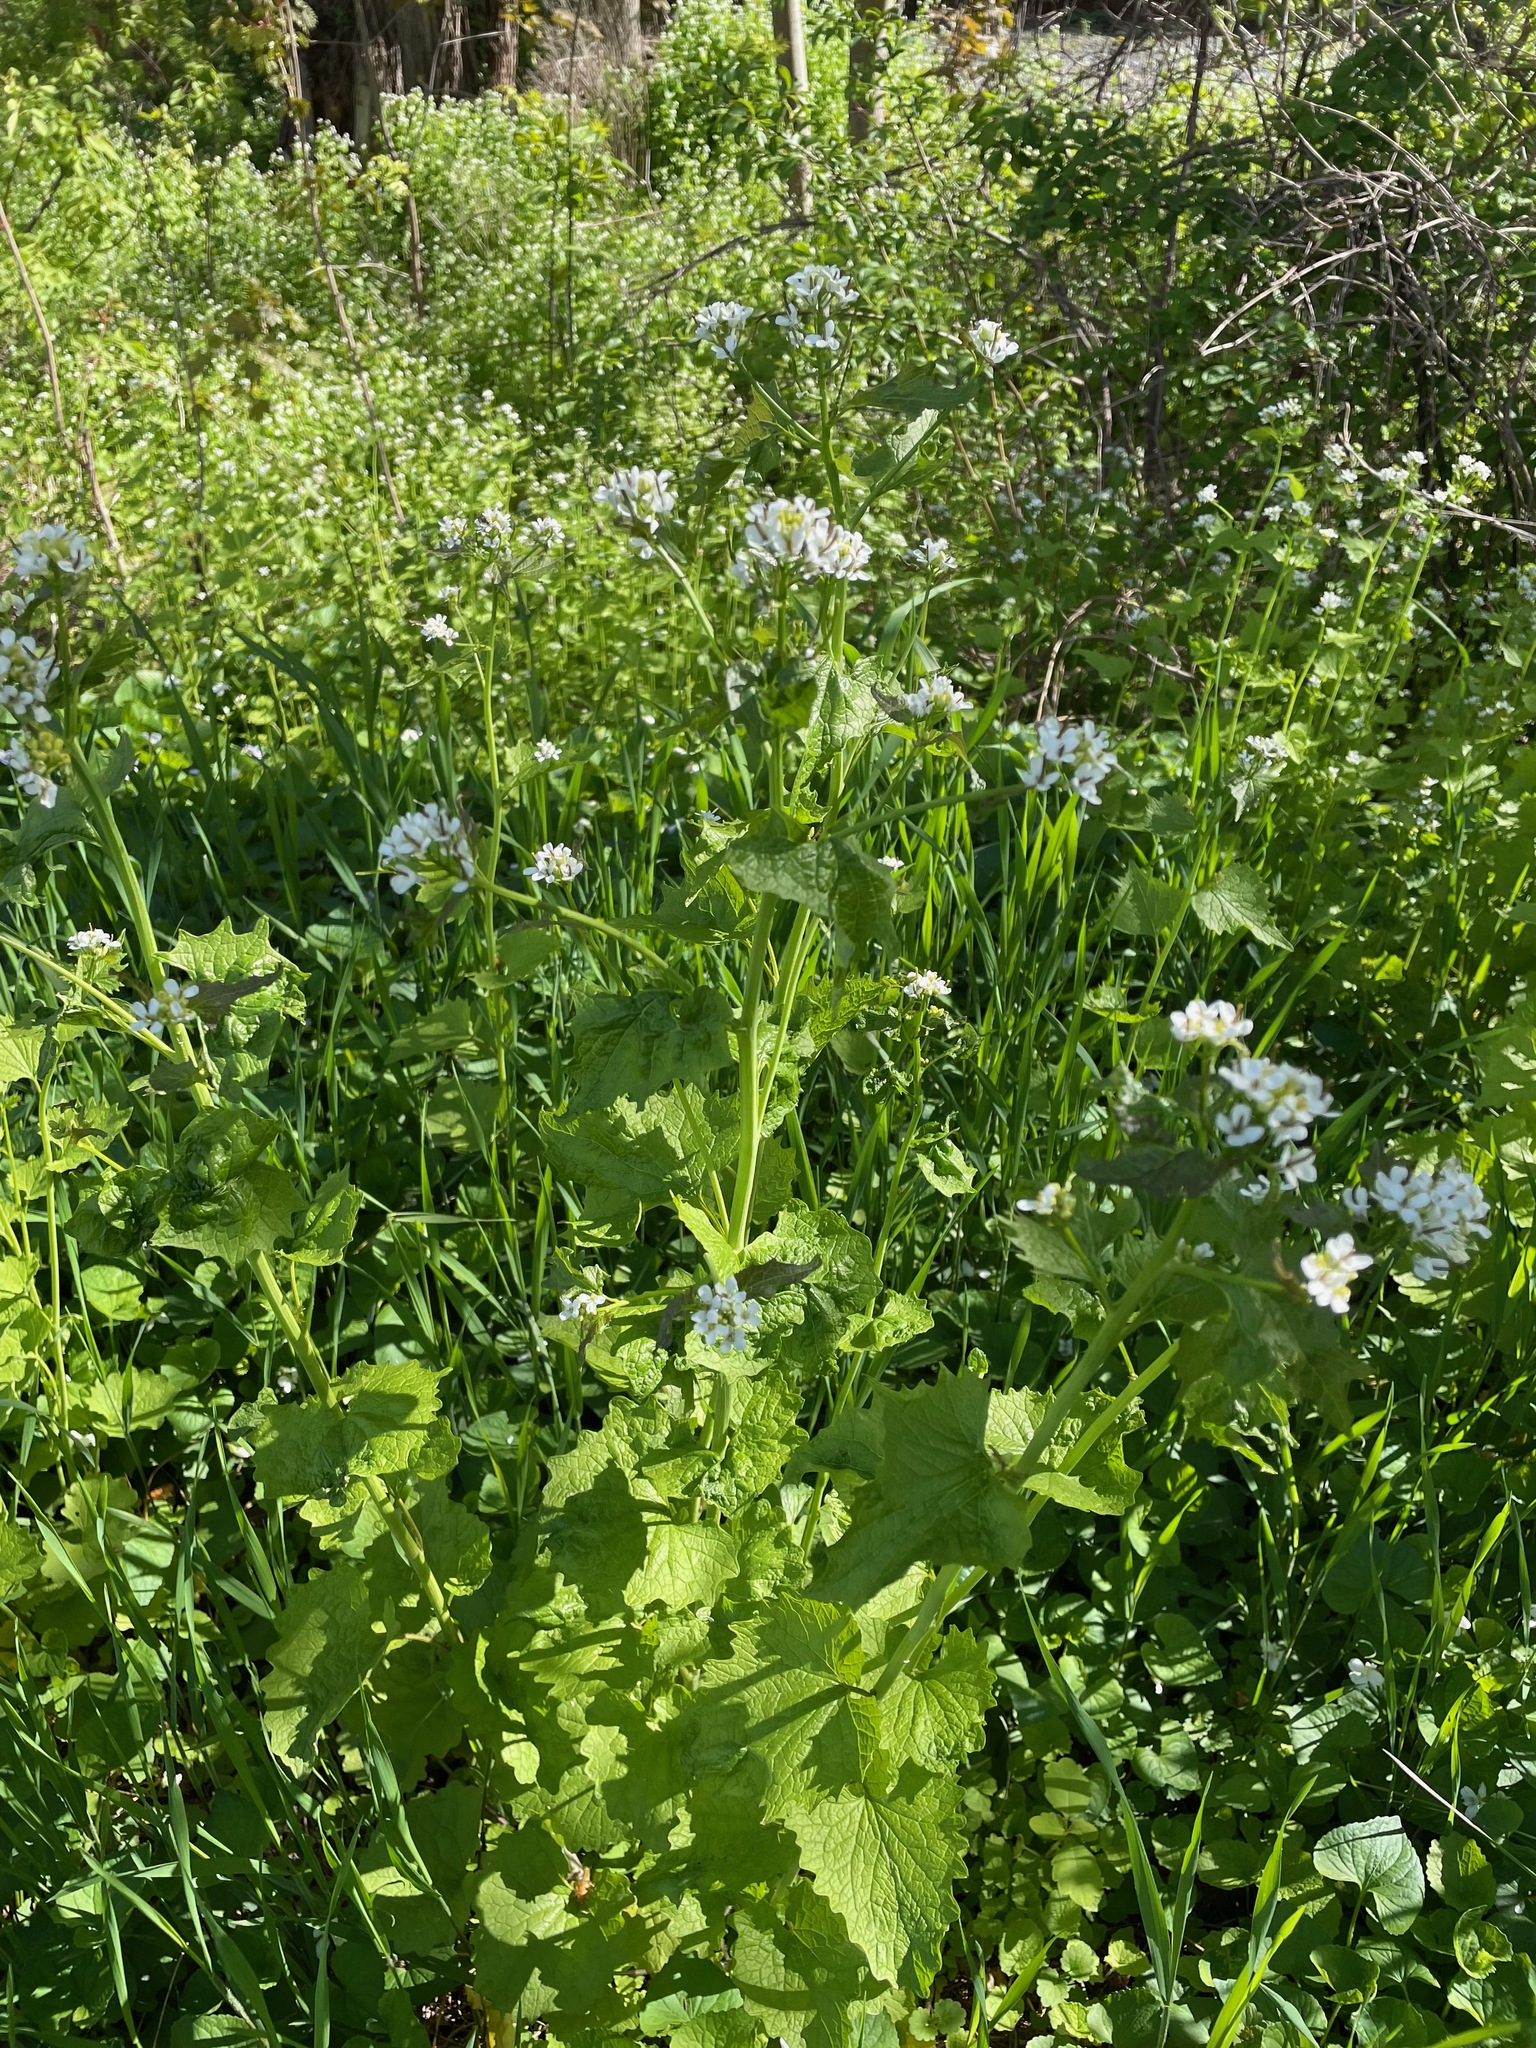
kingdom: Plantae
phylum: Tracheophyta
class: Magnoliopsida
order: Brassicales
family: Brassicaceae
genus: Alliaria
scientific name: Alliaria petiolata
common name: Garlic mustard
